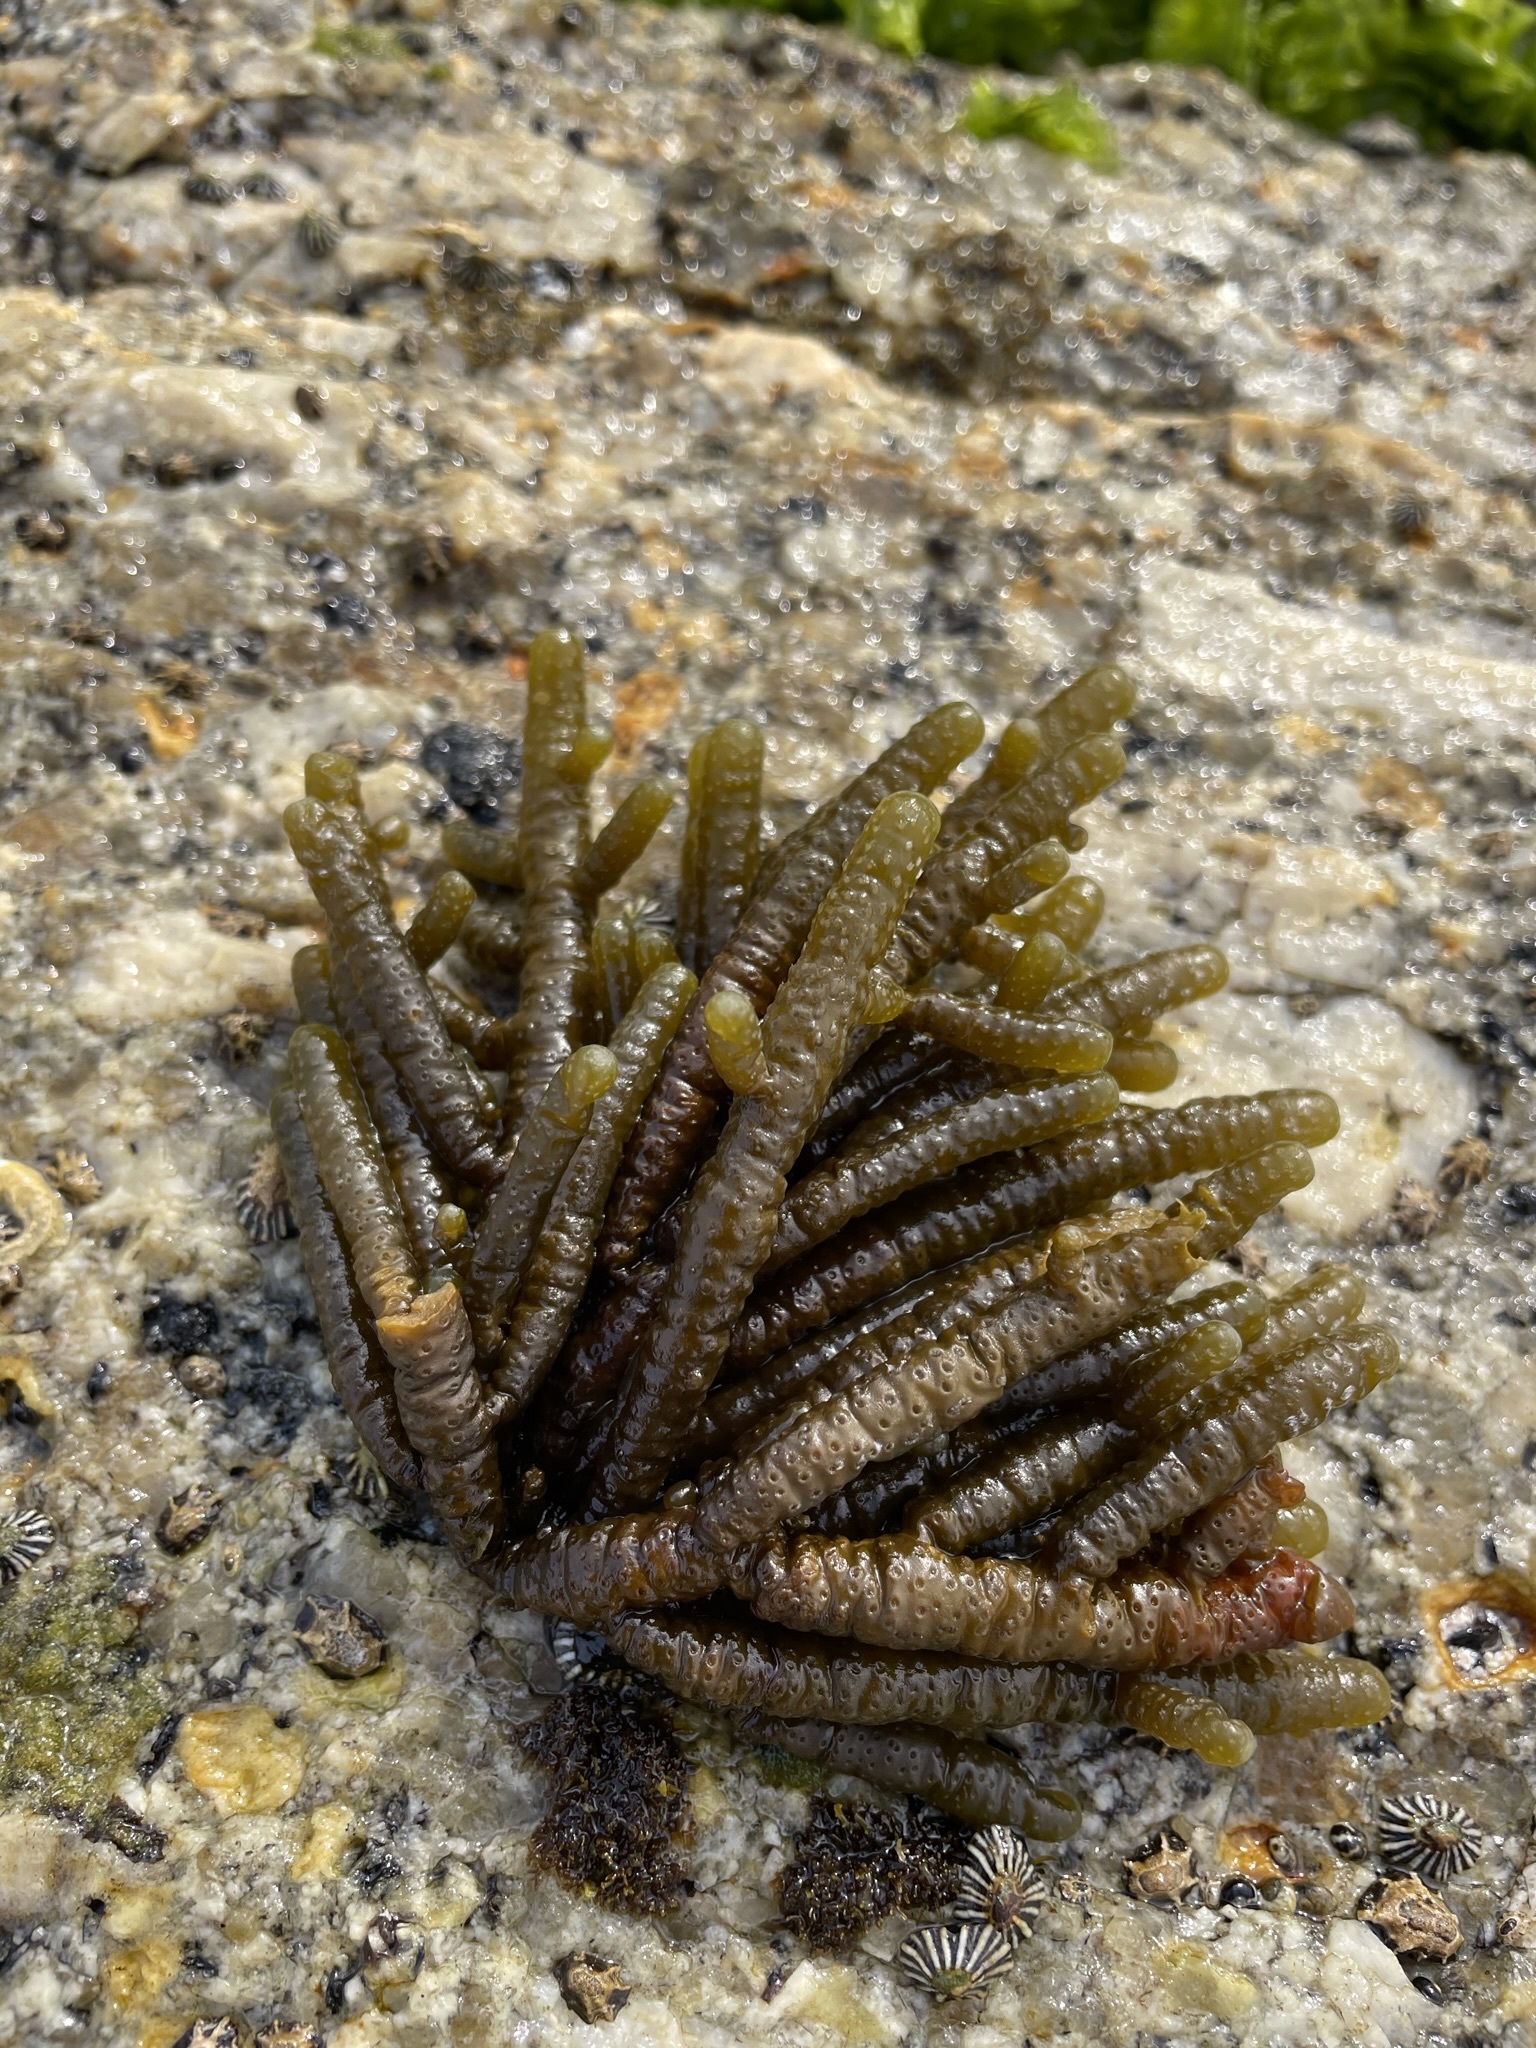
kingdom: Chromista
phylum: Ochrophyta
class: Phaeophyceae
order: Scytothamnales
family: Splachnidiaceae
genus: Splachnidium
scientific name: Splachnidium rugosum
